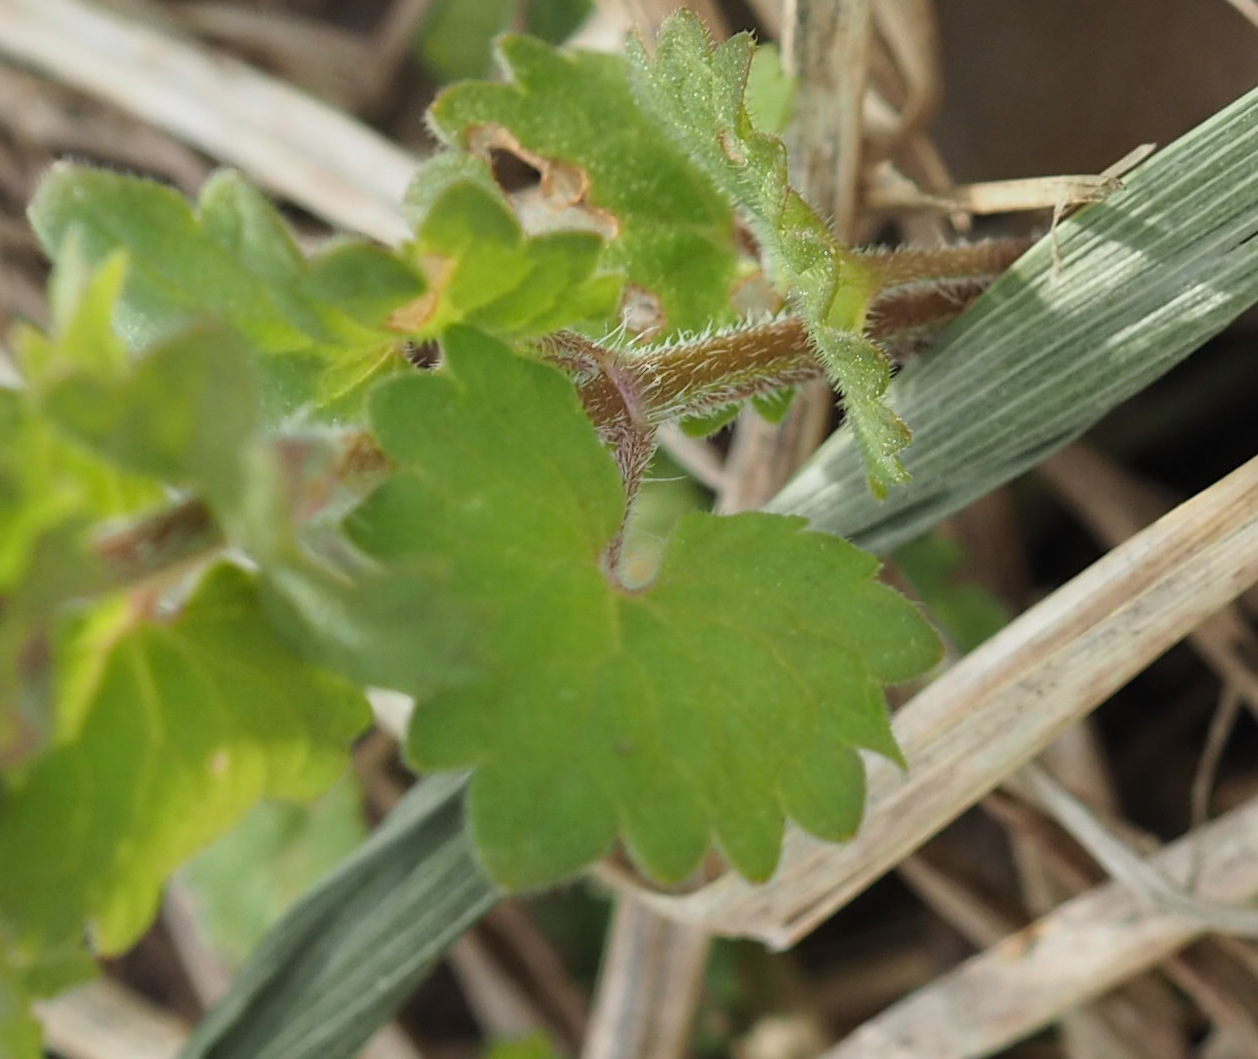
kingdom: Plantae
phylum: Tracheophyta
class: Magnoliopsida
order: Lamiales
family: Lamiaceae
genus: Glechoma
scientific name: Glechoma hederacea
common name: Ground ivy
